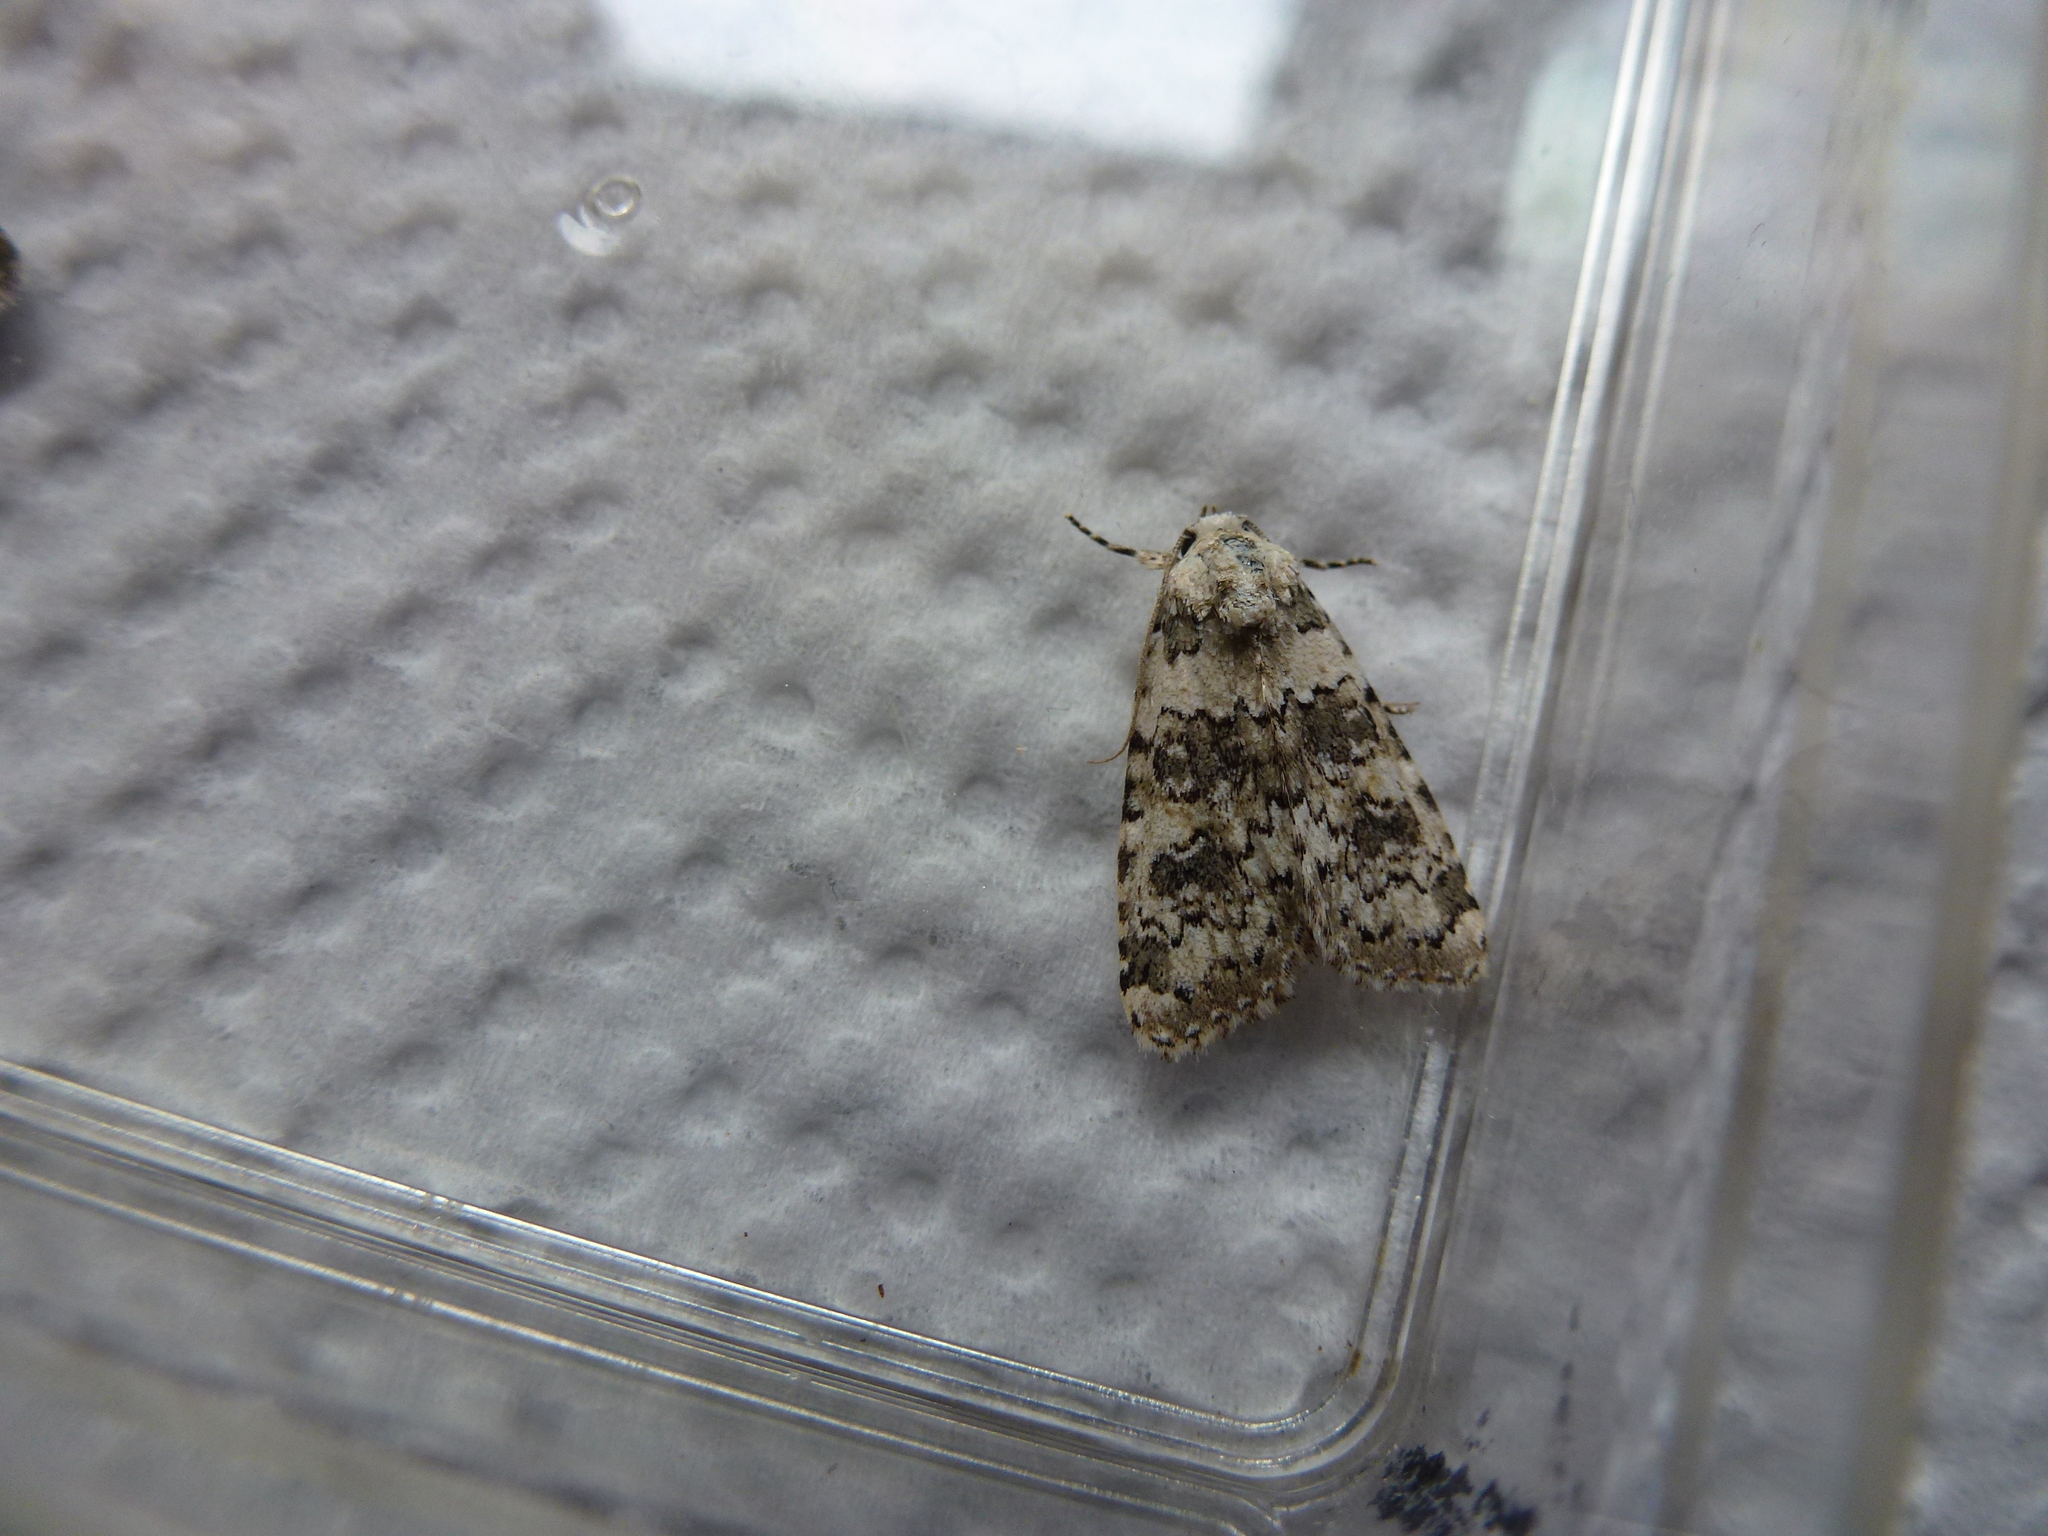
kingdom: Animalia
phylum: Arthropoda
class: Insecta
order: Lepidoptera
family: Noctuidae
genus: Bryophila
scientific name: Bryophila domestica
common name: Marbled beauty
